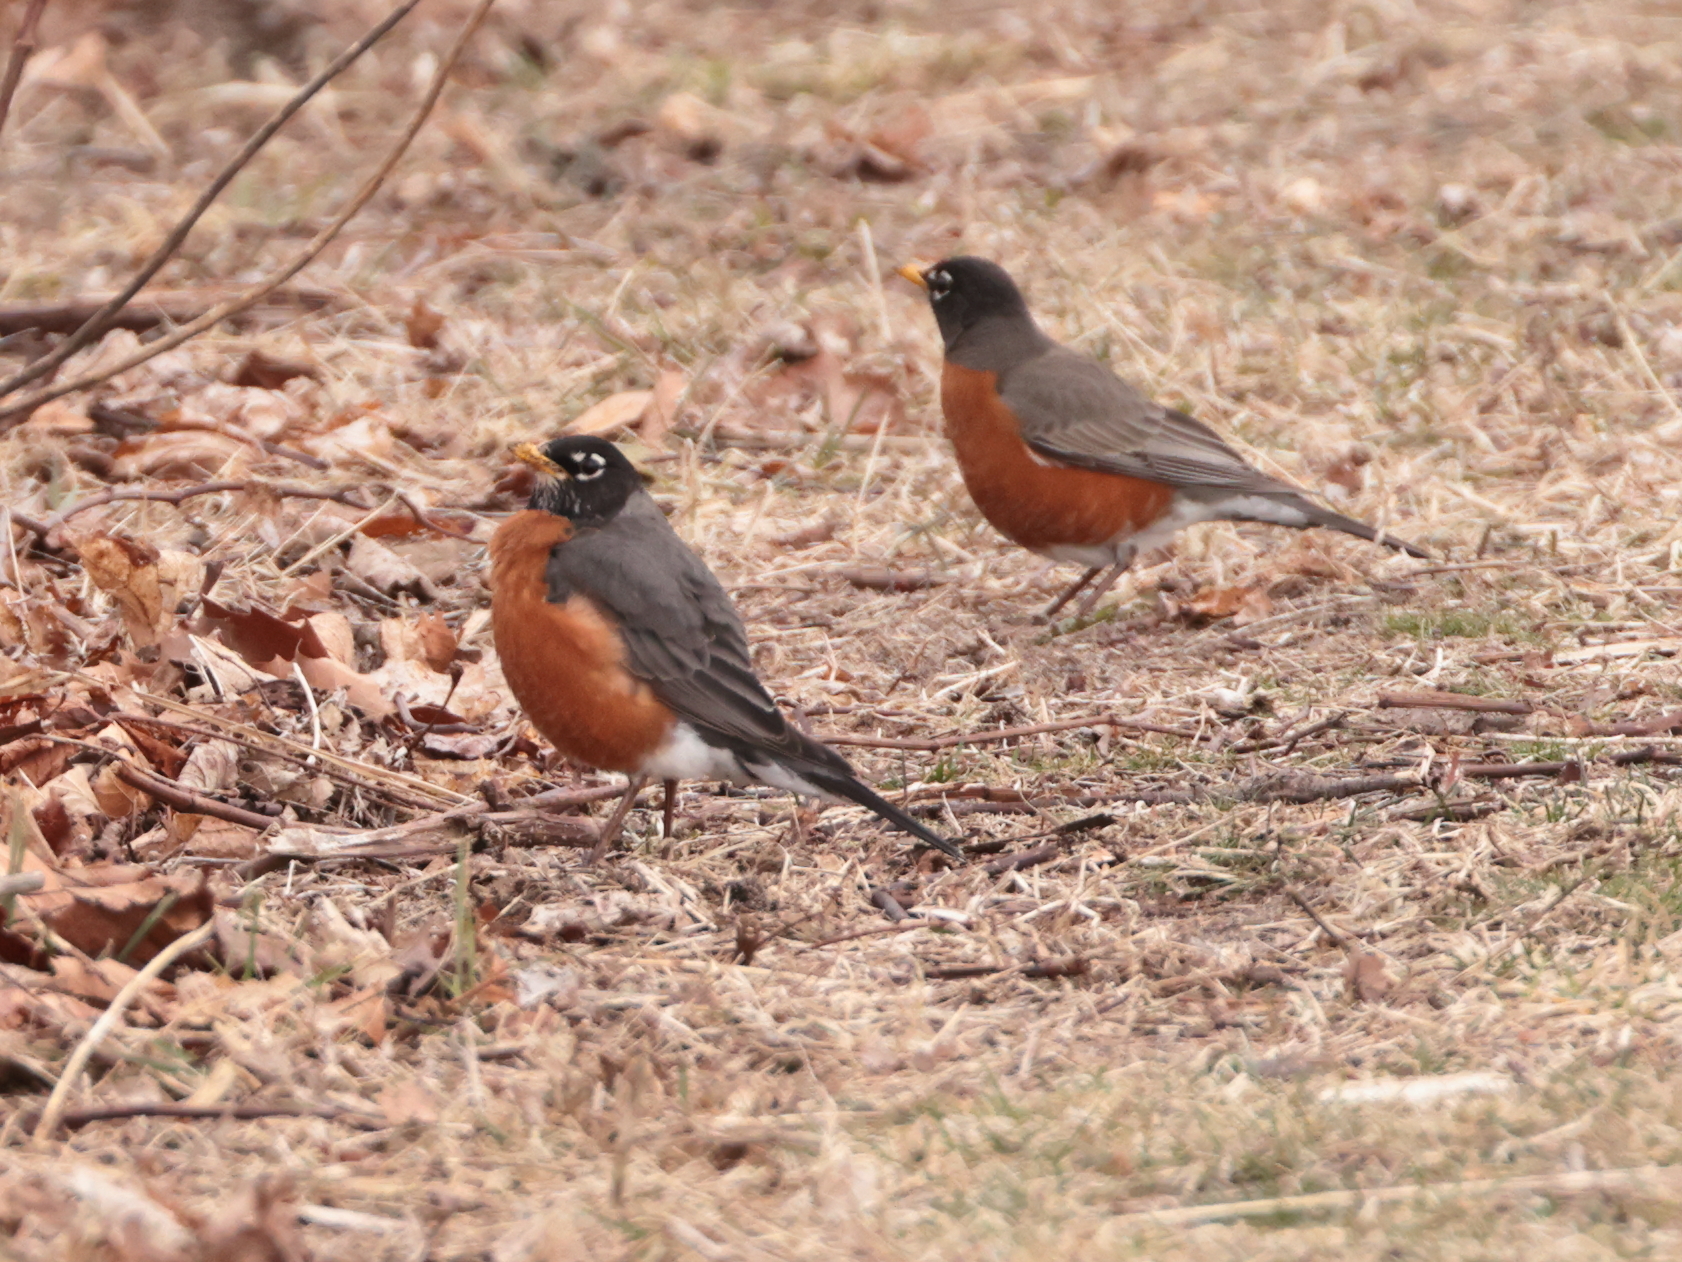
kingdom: Animalia
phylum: Chordata
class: Aves
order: Passeriformes
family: Turdidae
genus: Turdus
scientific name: Turdus migratorius
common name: American robin
